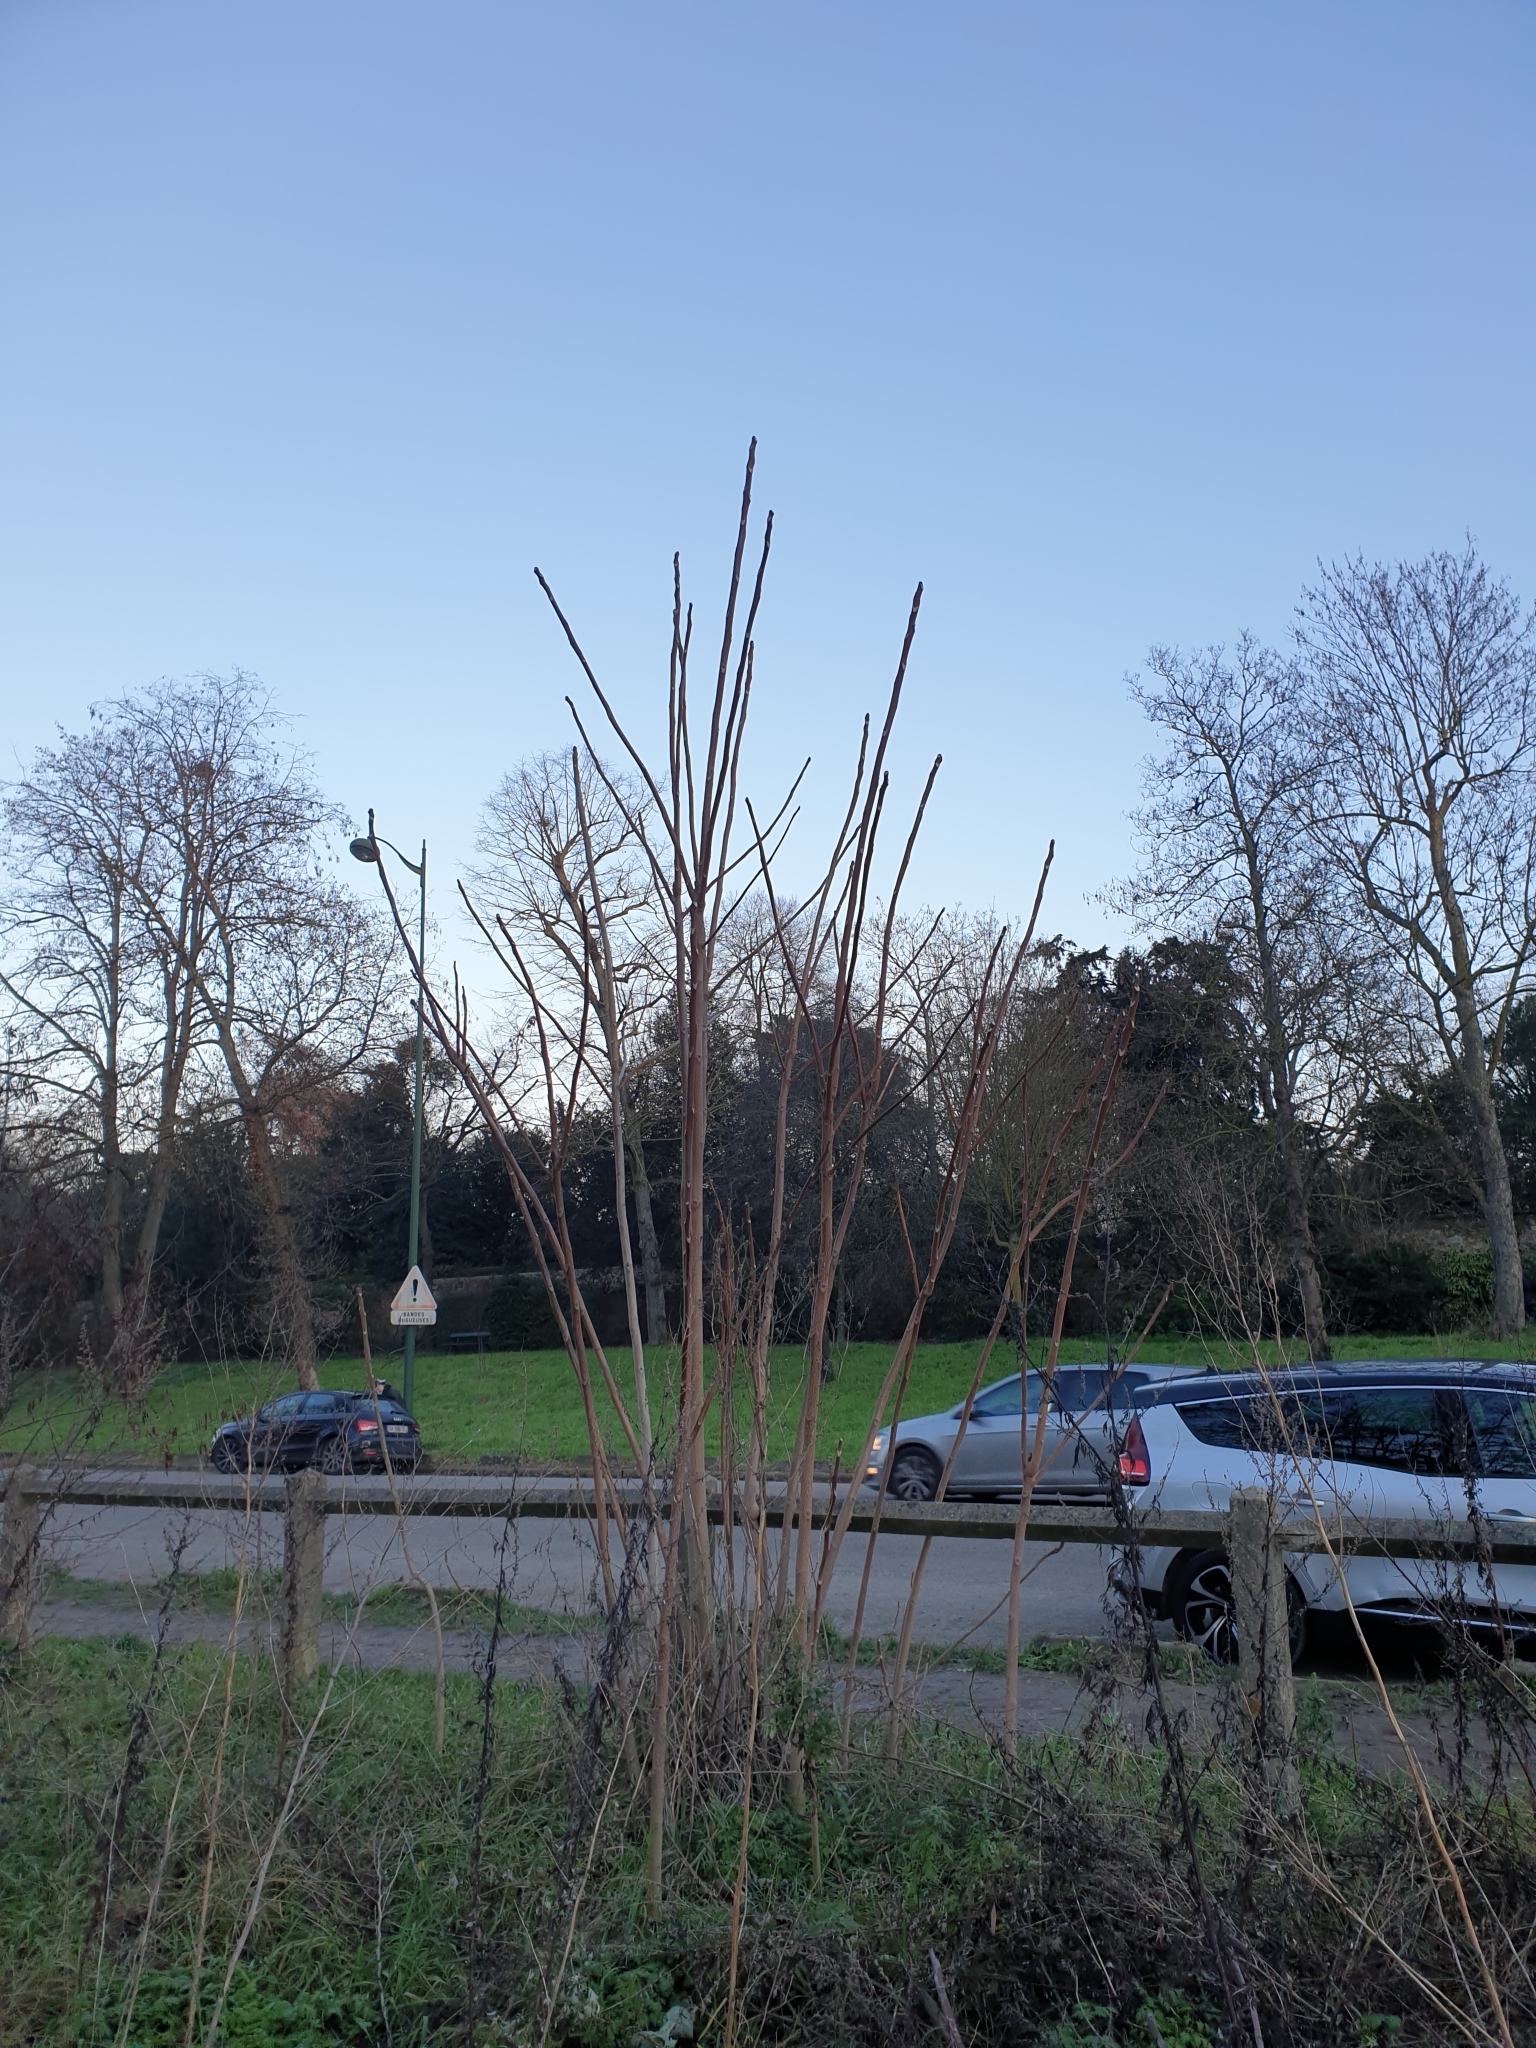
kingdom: Plantae
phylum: Tracheophyta
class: Magnoliopsida
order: Sapindales
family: Simaroubaceae
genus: Ailanthus
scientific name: Ailanthus altissima
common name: Tree-of-heaven
